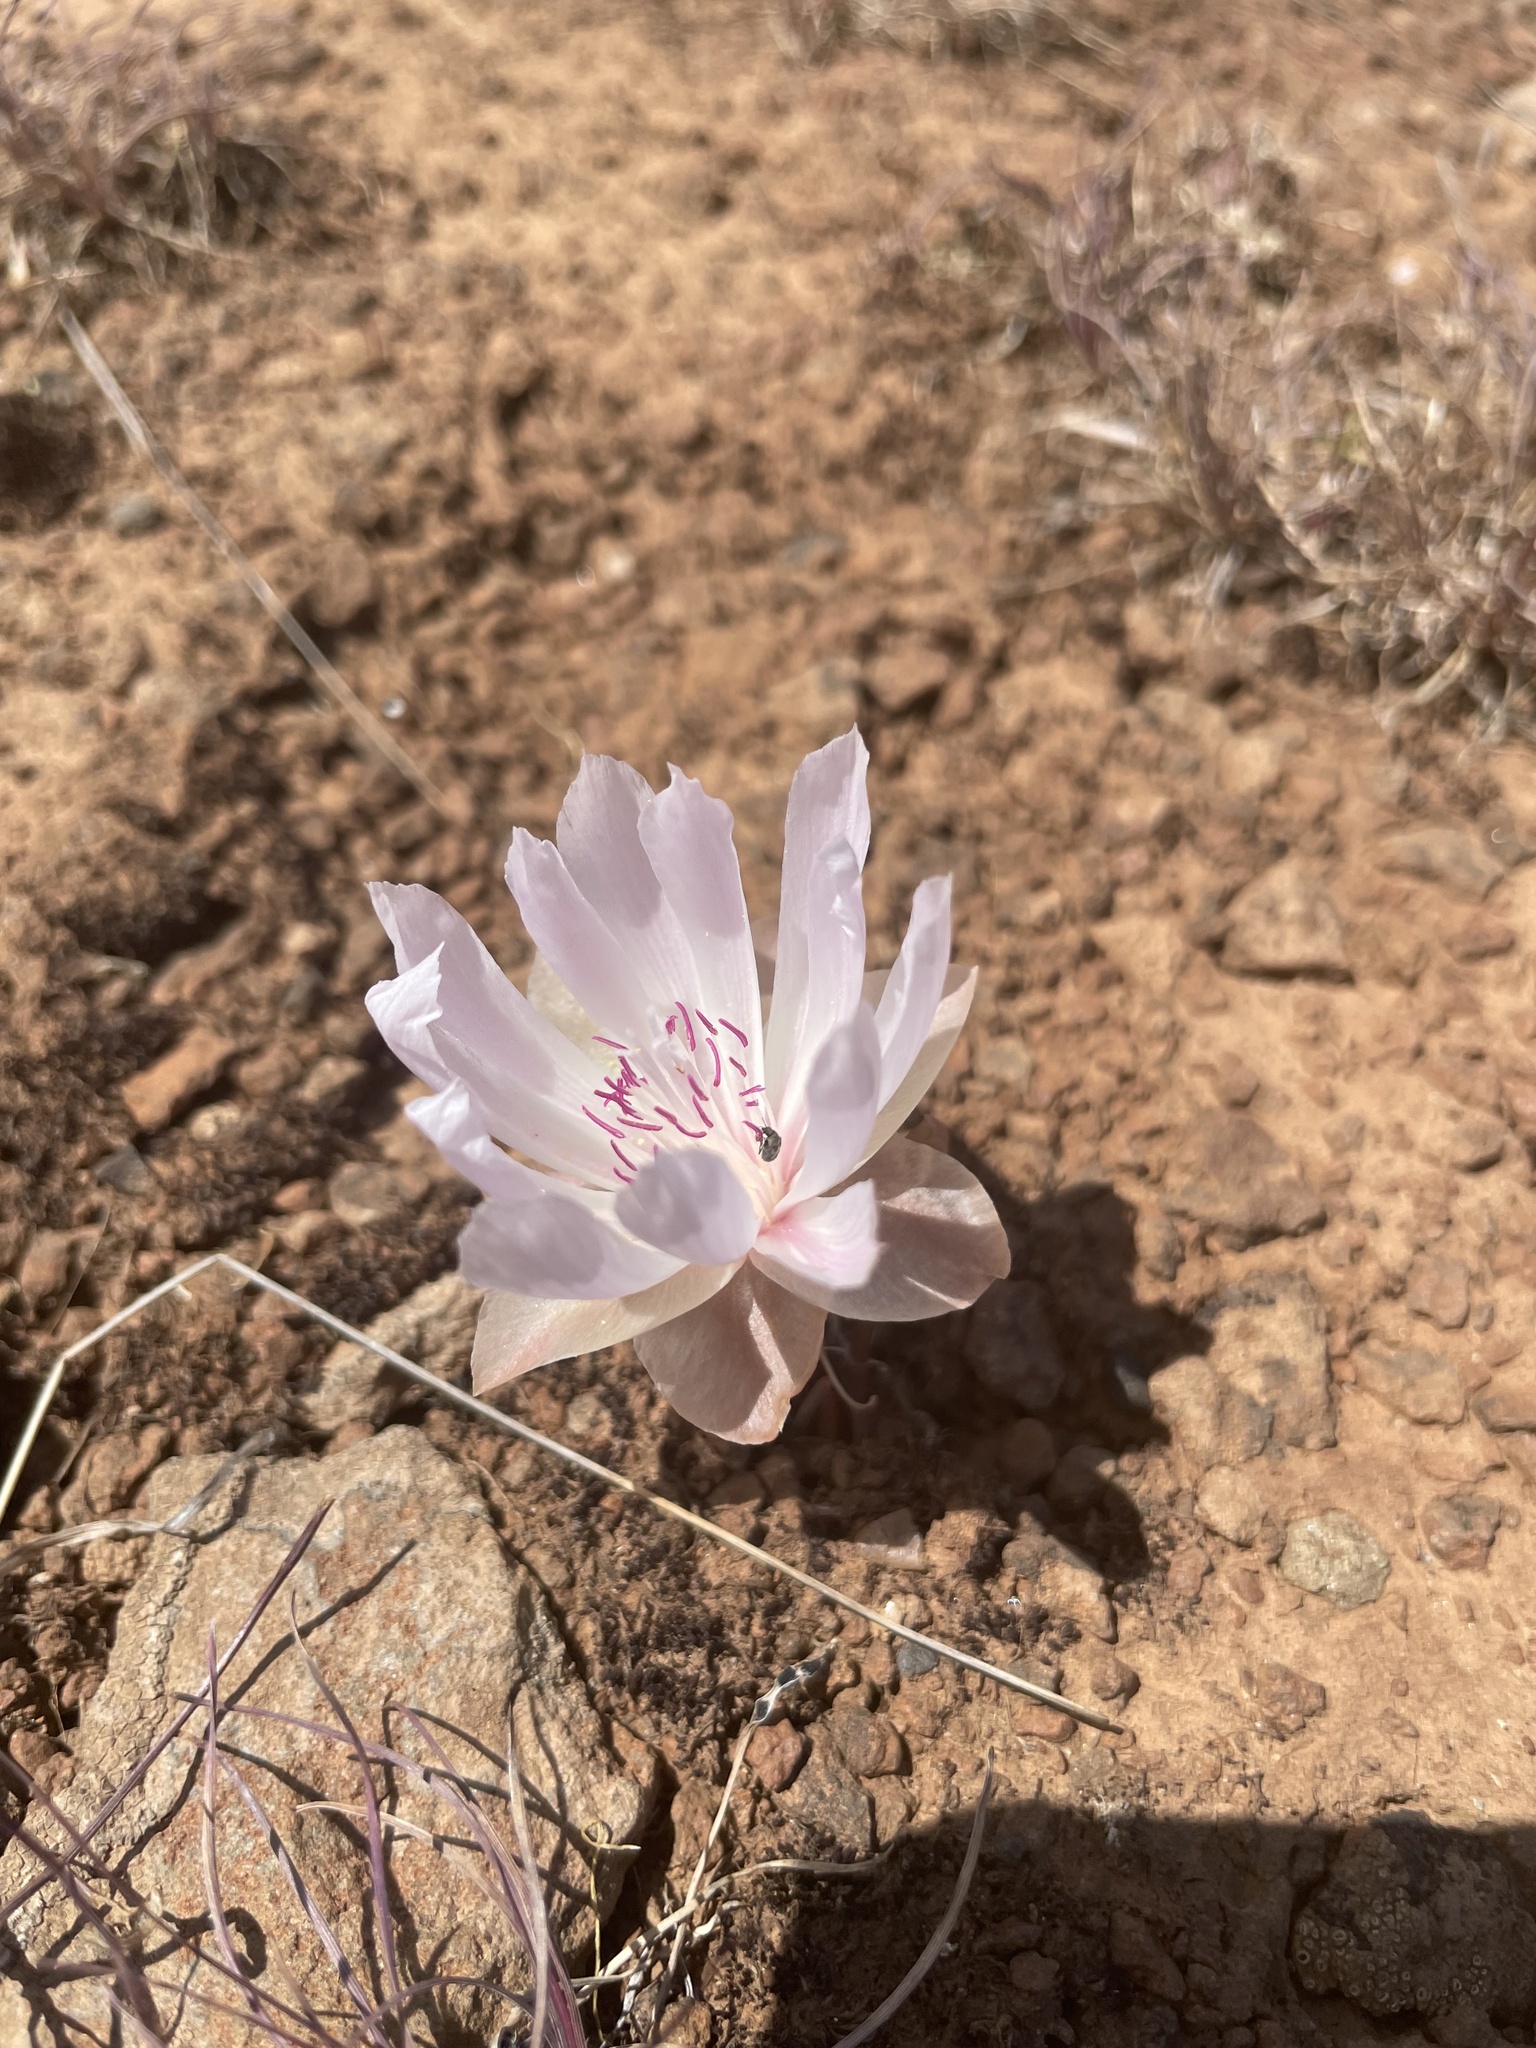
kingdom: Plantae
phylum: Tracheophyta
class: Magnoliopsida
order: Caryophyllales
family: Montiaceae
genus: Lewisia
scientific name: Lewisia rediviva
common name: Bitter-root
